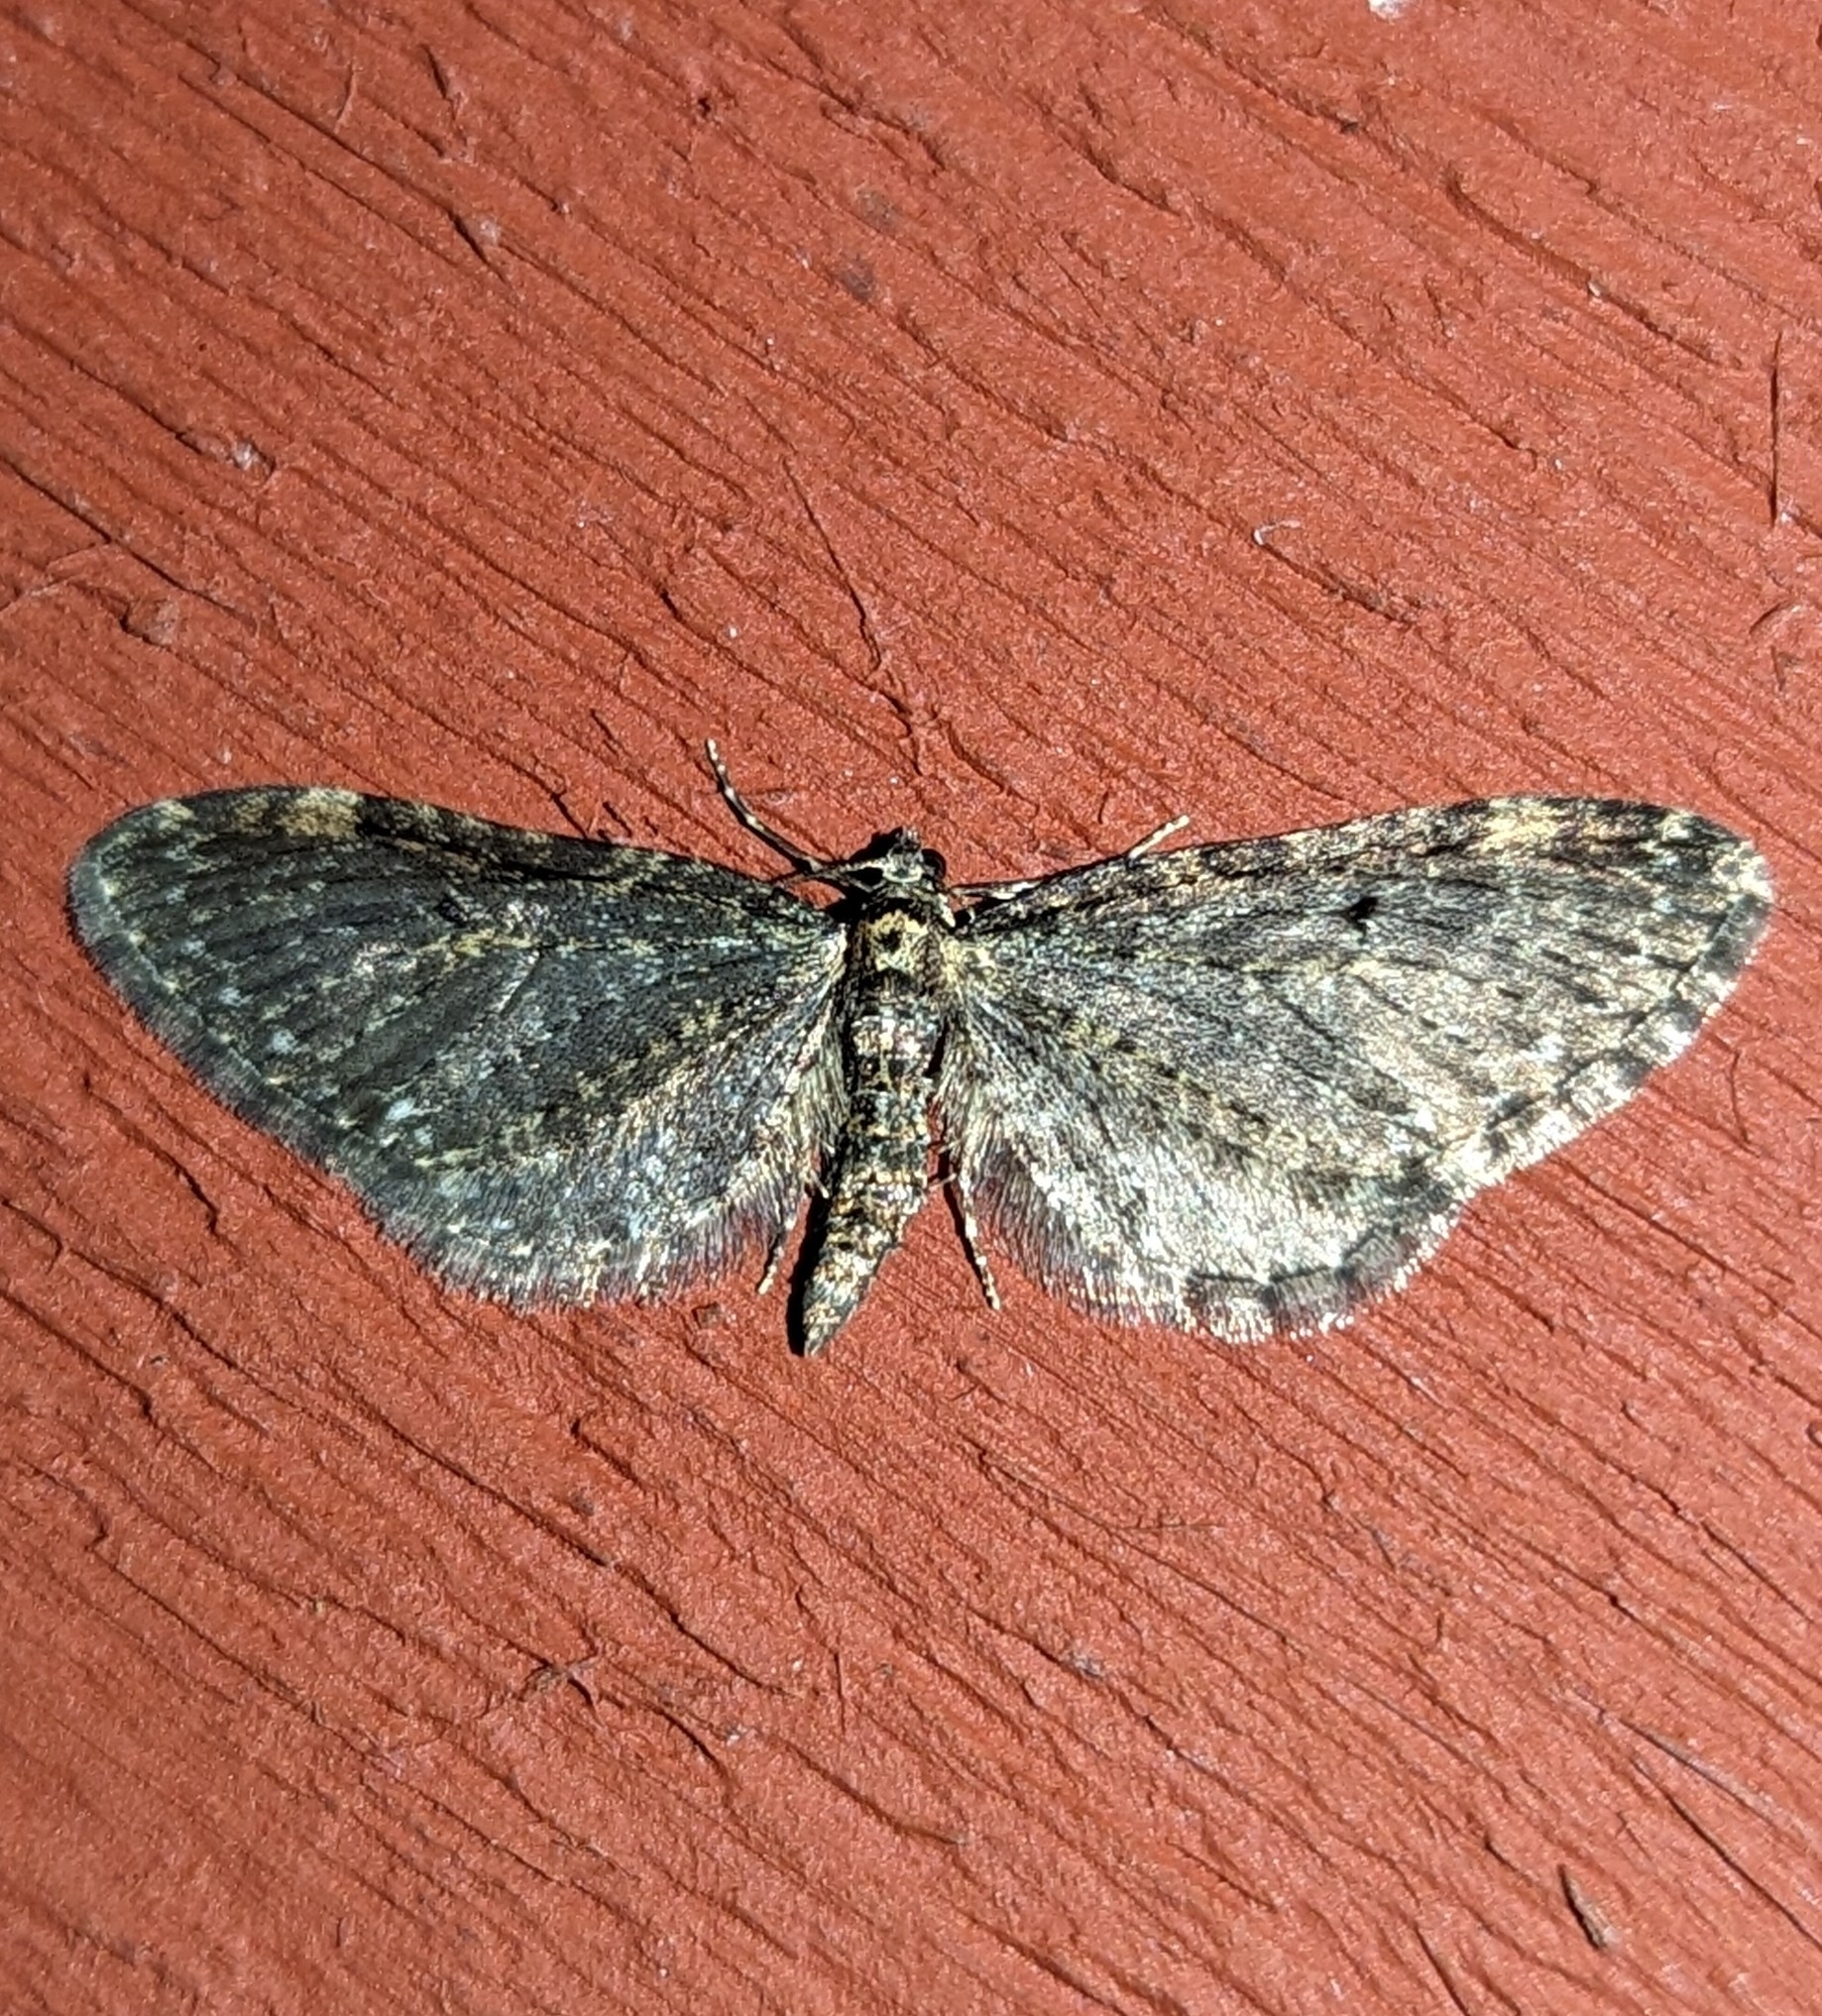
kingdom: Animalia
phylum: Arthropoda
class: Insecta
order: Lepidoptera
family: Geometridae
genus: Eupithecia
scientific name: Eupithecia olivacea
